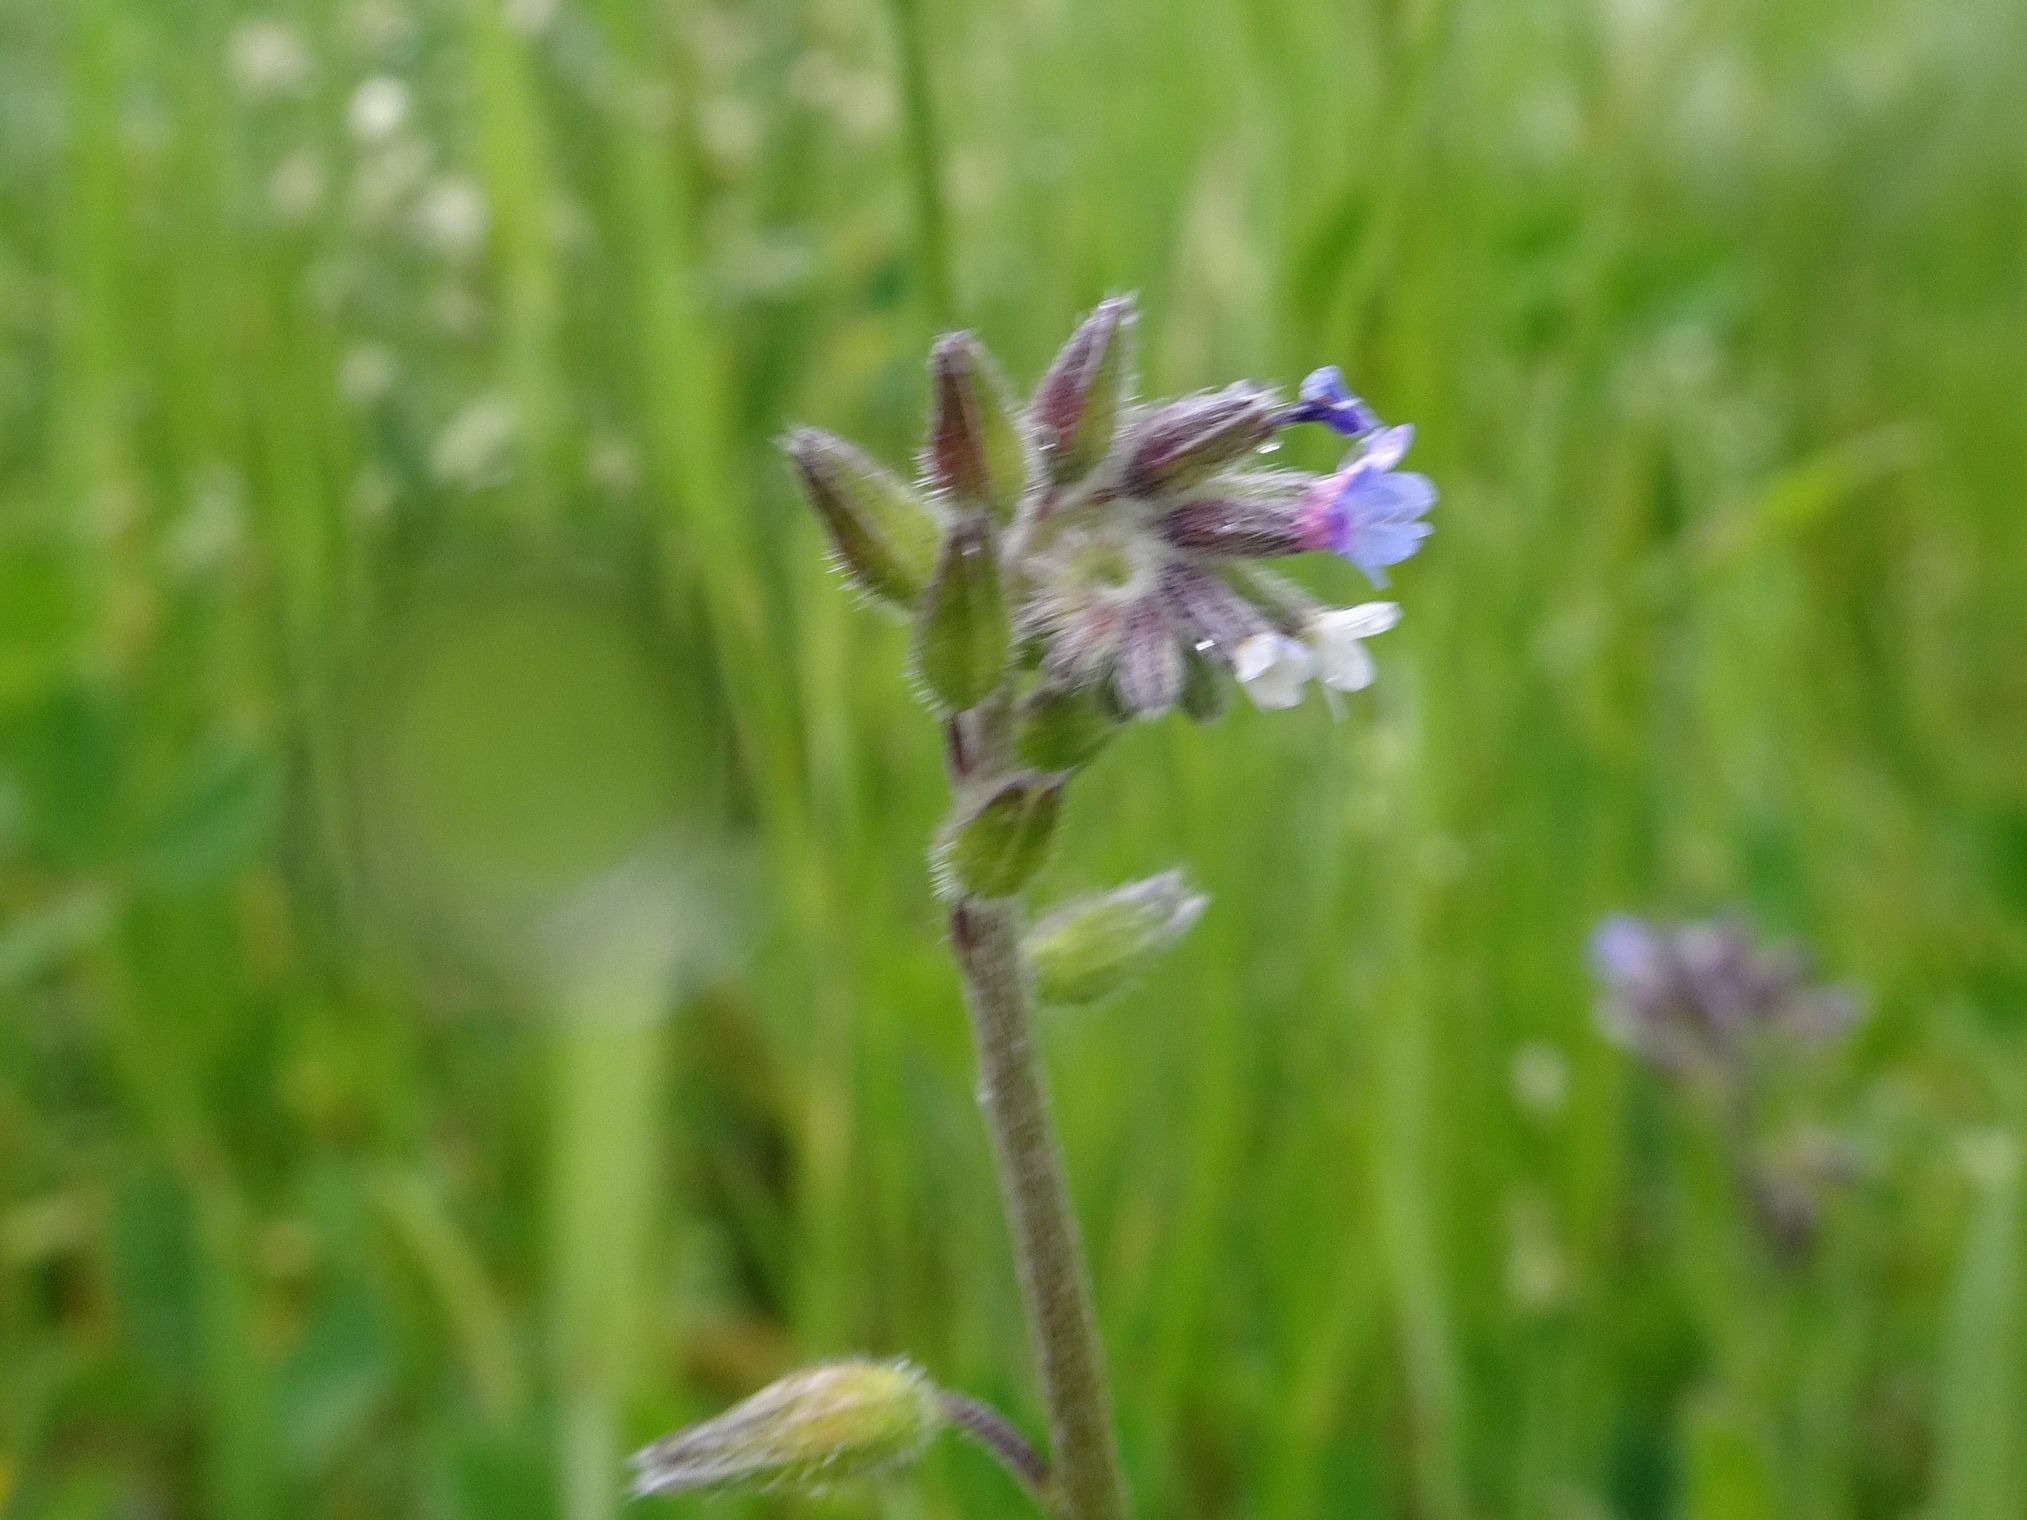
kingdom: Plantae
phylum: Tracheophyta
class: Magnoliopsida
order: Boraginales
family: Boraginaceae
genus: Myosotis
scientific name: Myosotis discolor
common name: Changing forget-me-not
